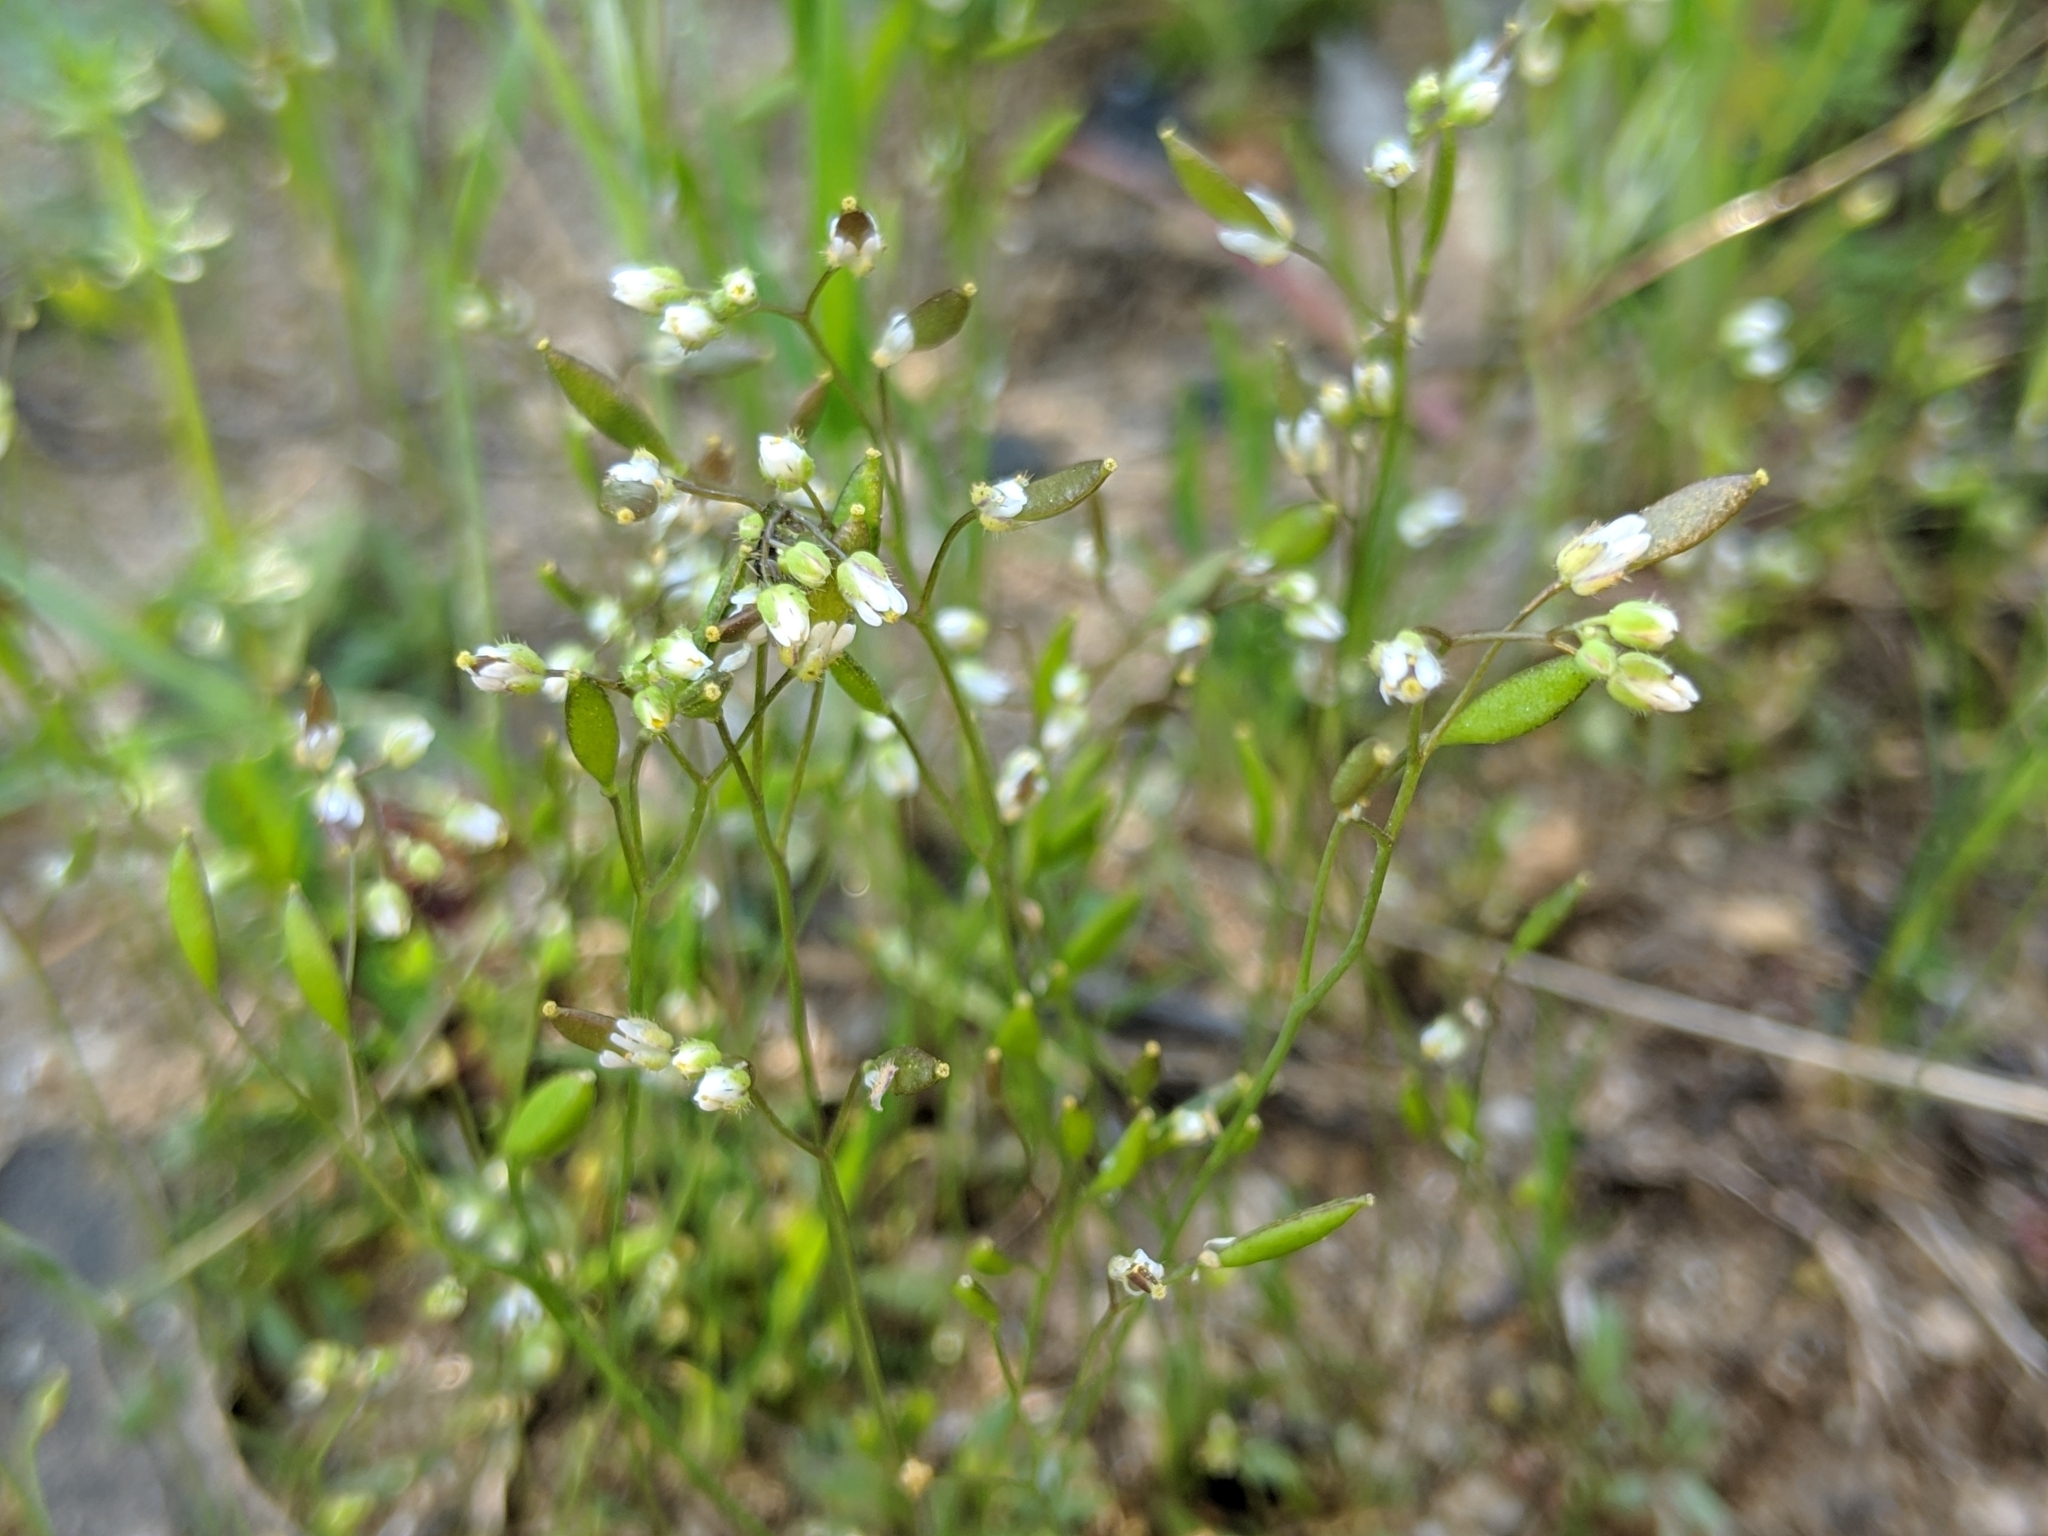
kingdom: Plantae
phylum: Tracheophyta
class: Magnoliopsida
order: Brassicales
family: Brassicaceae
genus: Draba
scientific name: Draba verna
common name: Spring draba
